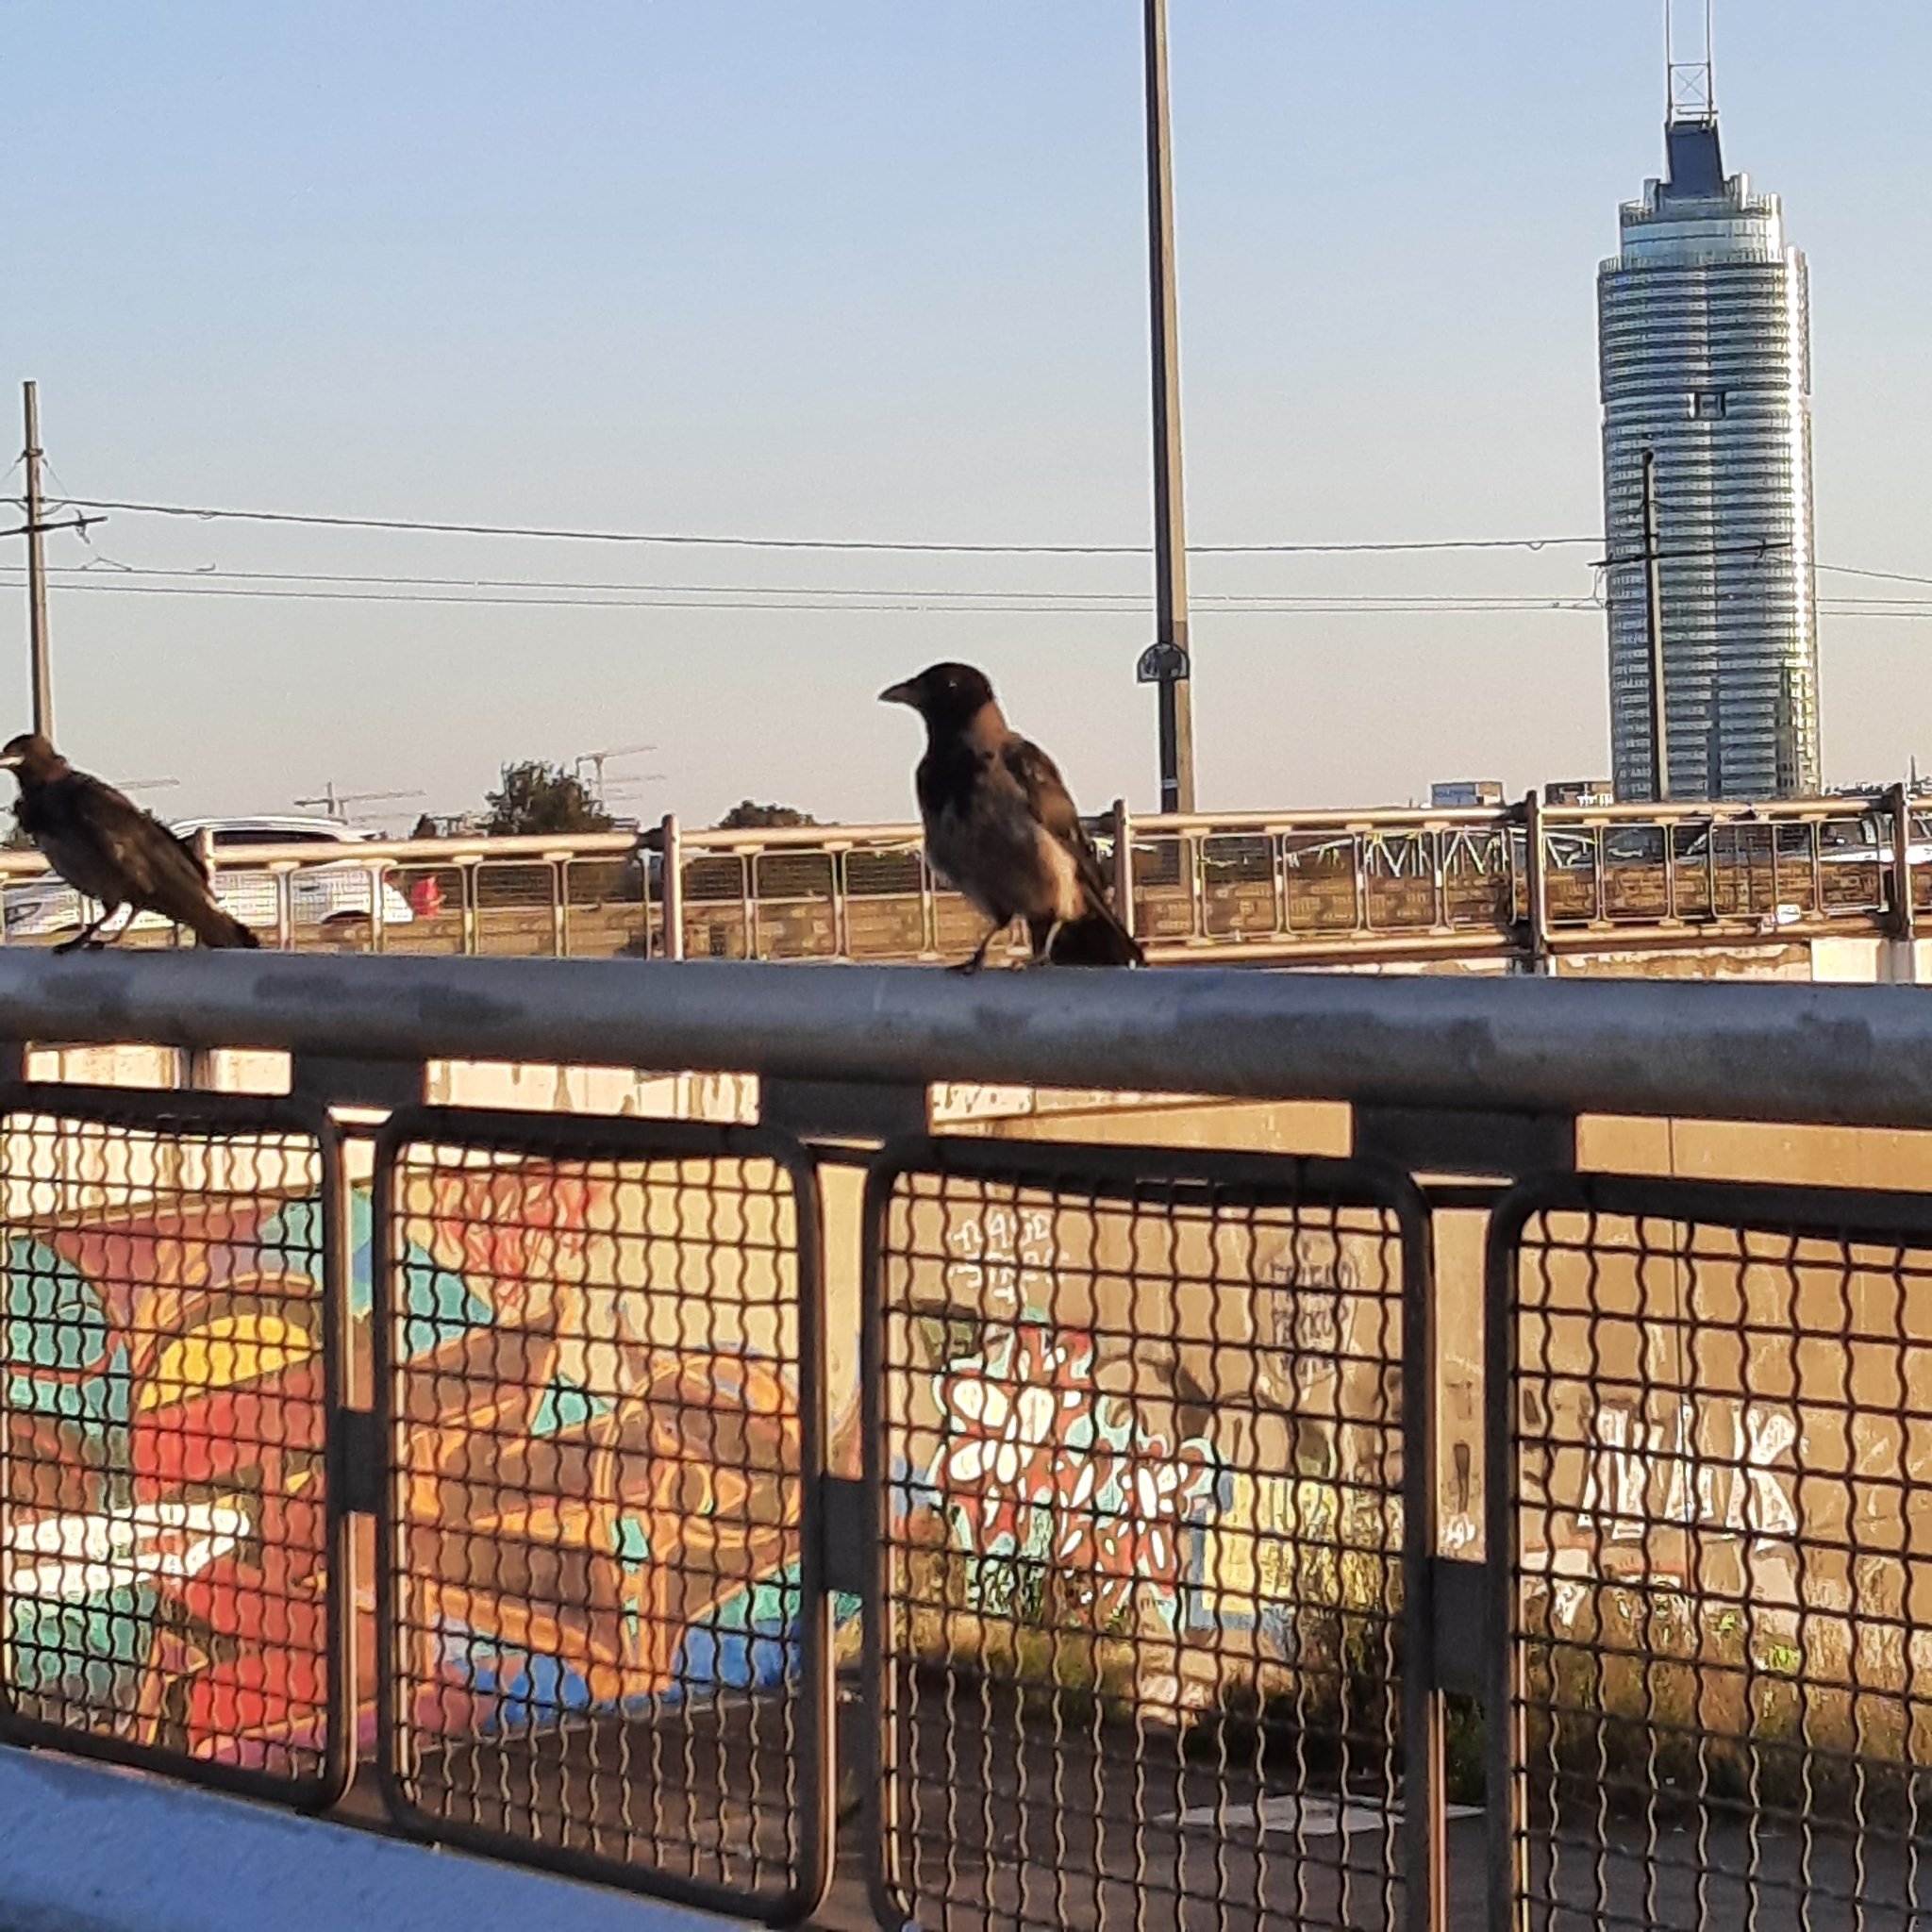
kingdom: Animalia
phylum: Chordata
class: Aves
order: Passeriformes
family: Corvidae
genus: Corvus
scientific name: Corvus cornix
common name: Hooded crow
